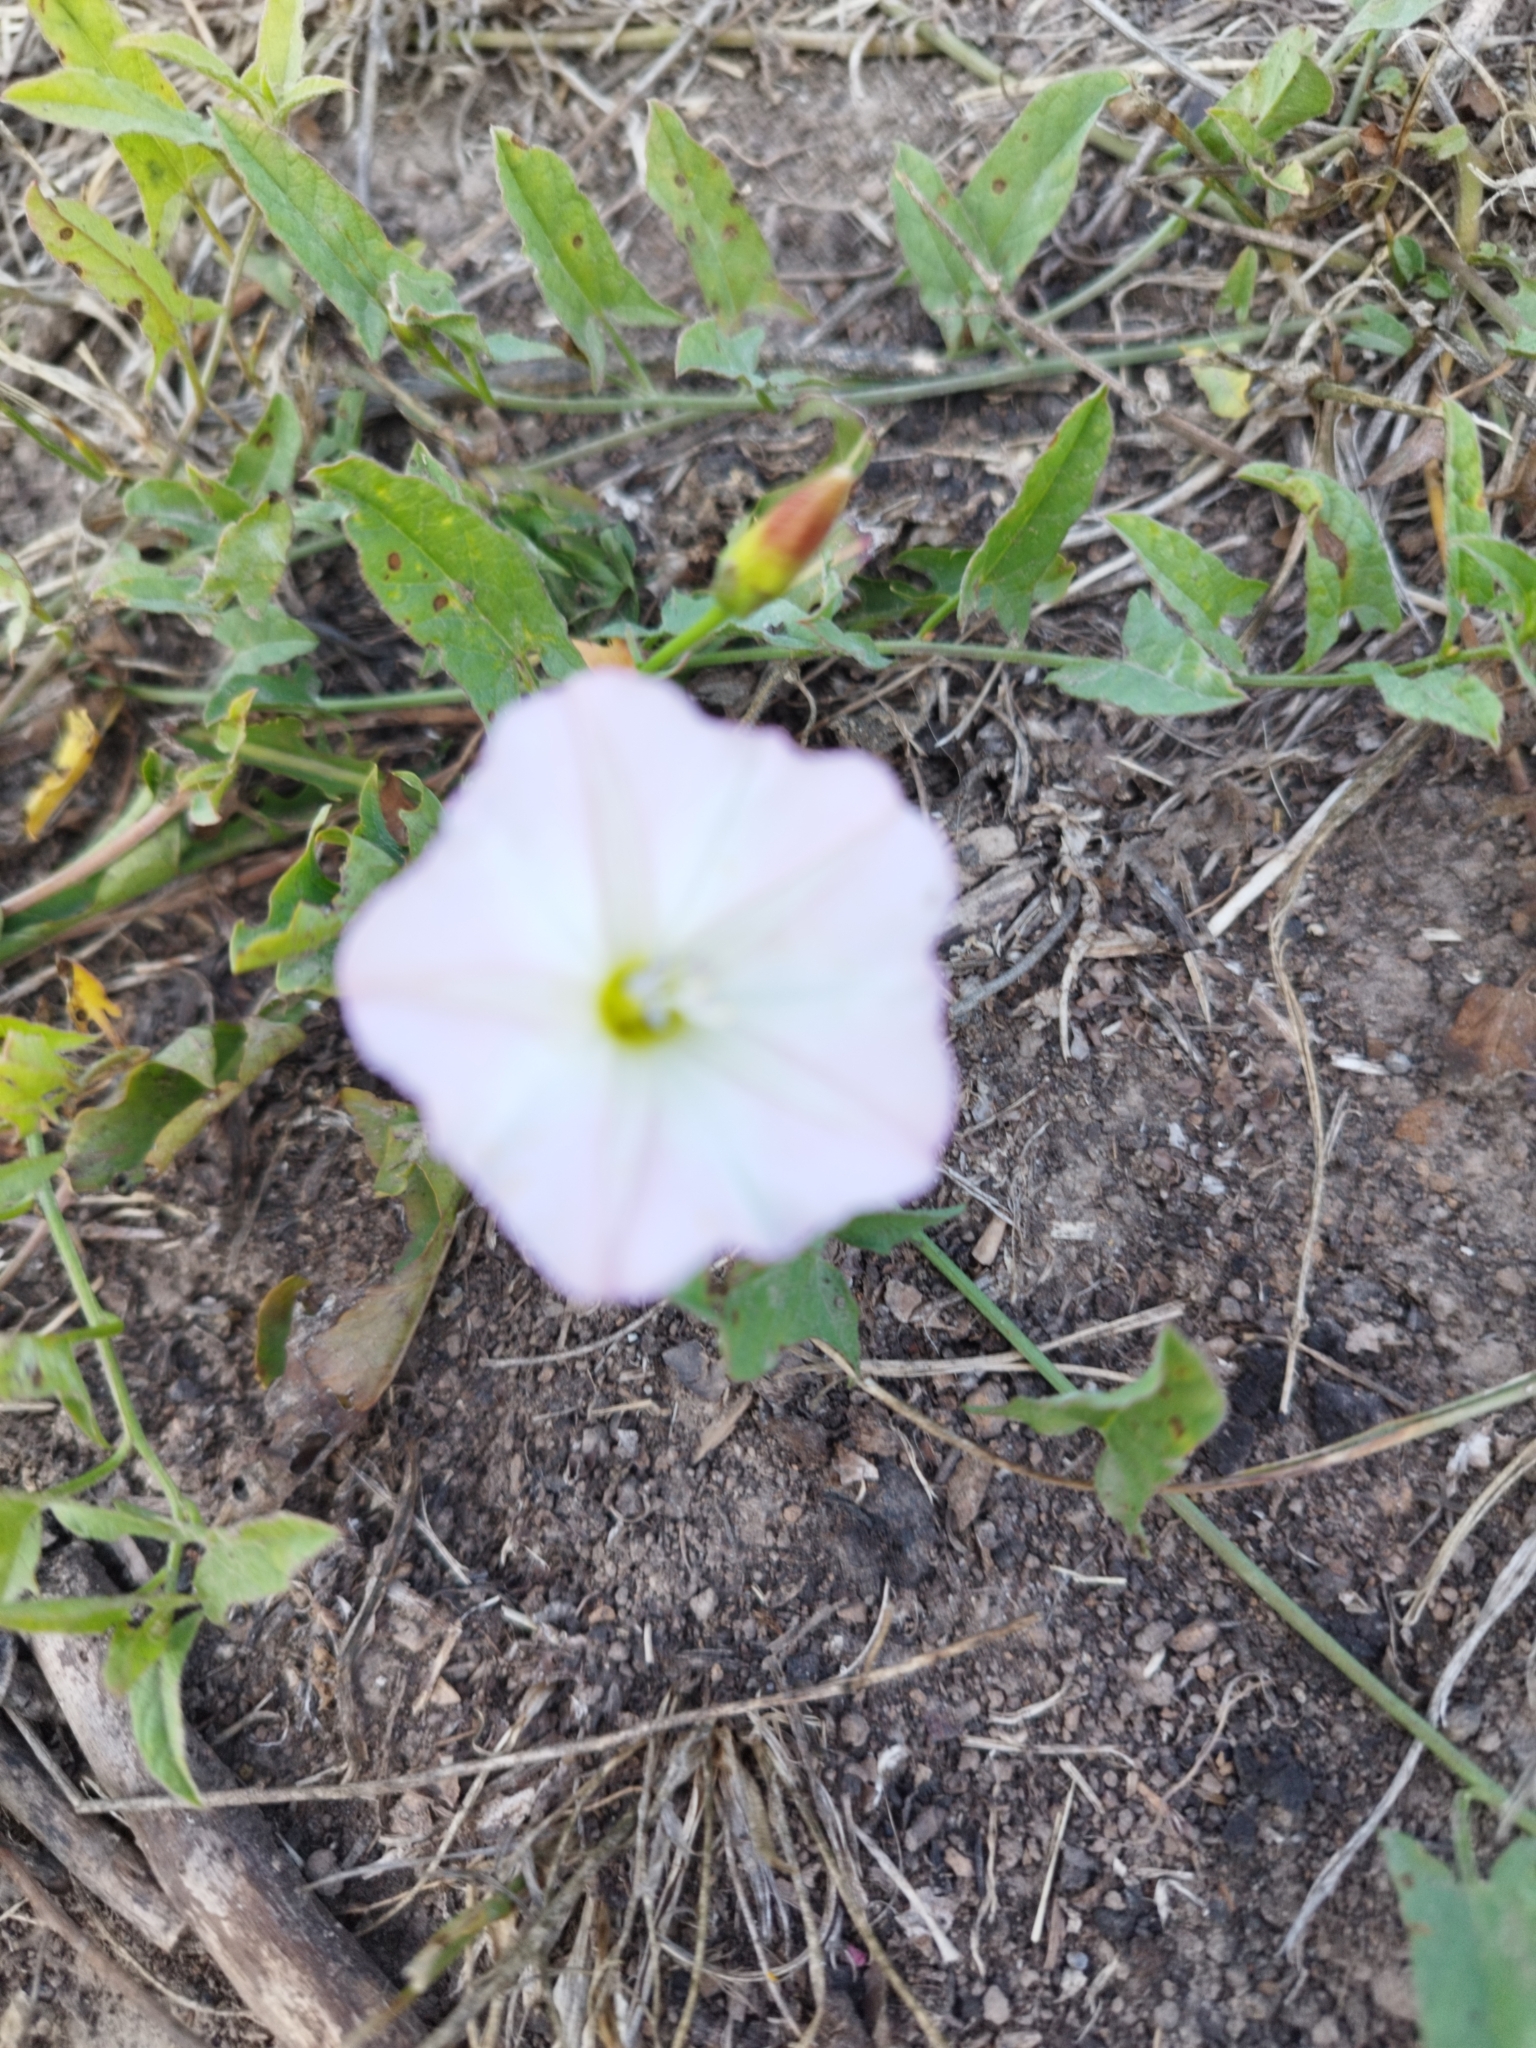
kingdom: Plantae
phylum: Tracheophyta
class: Magnoliopsida
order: Solanales
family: Convolvulaceae
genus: Convolvulus
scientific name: Convolvulus arvensis
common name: Field bindweed
